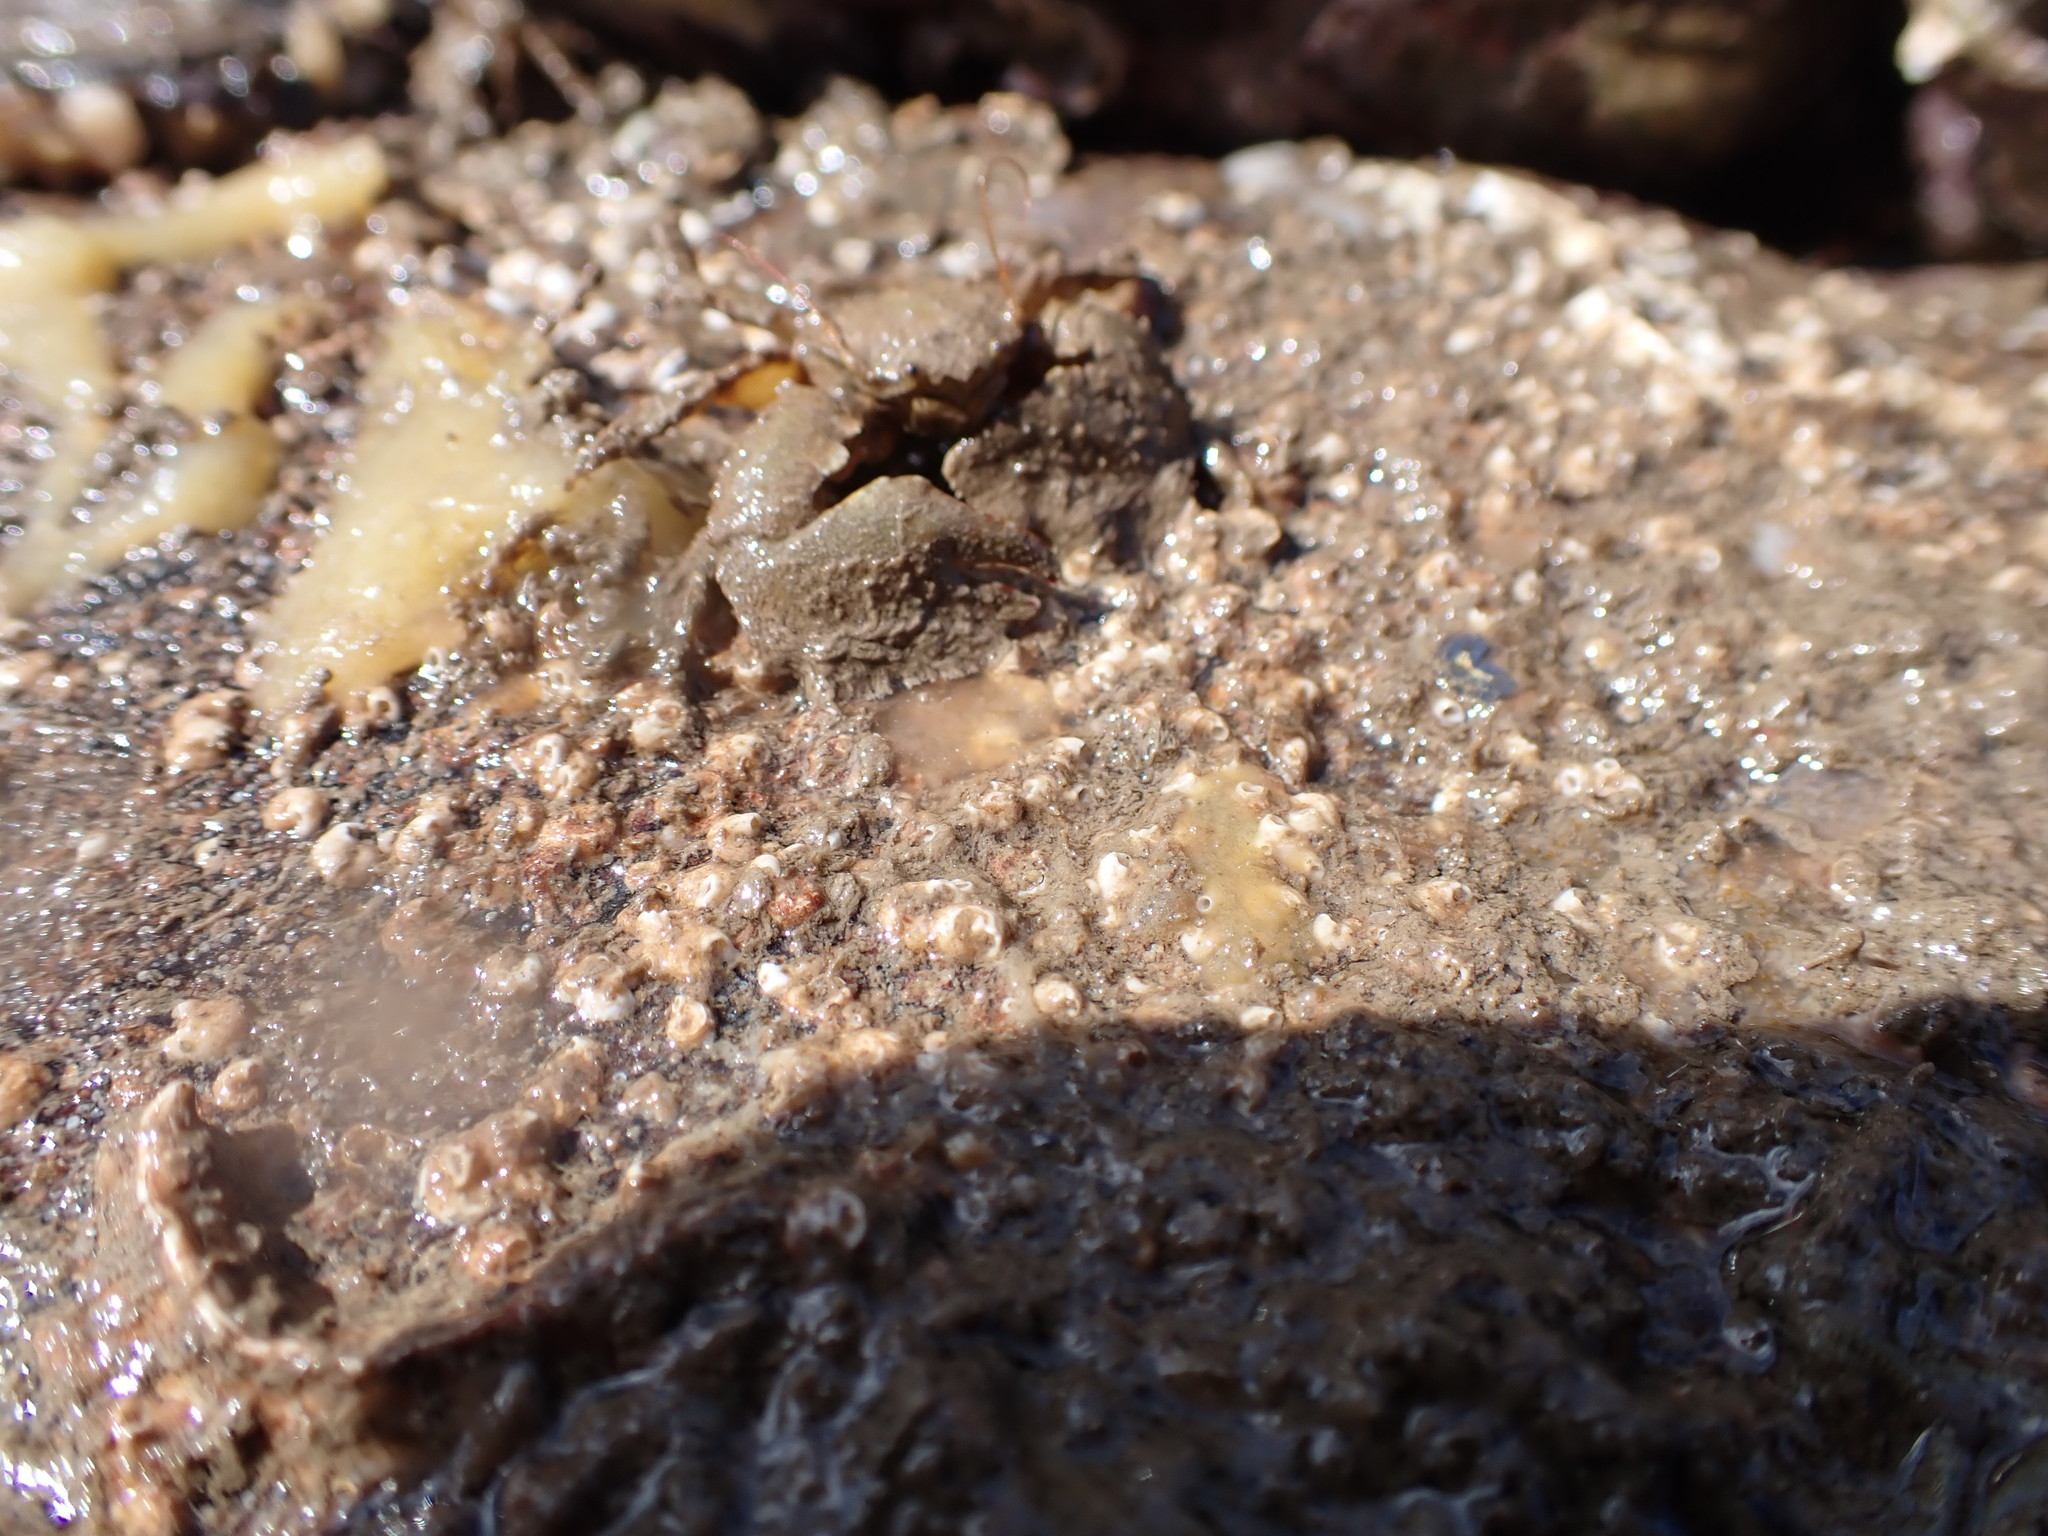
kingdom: Animalia
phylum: Arthropoda
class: Malacostraca
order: Decapoda
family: Porcellanidae
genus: Porcellana
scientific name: Porcellana platycheles
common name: Porcelain crab
